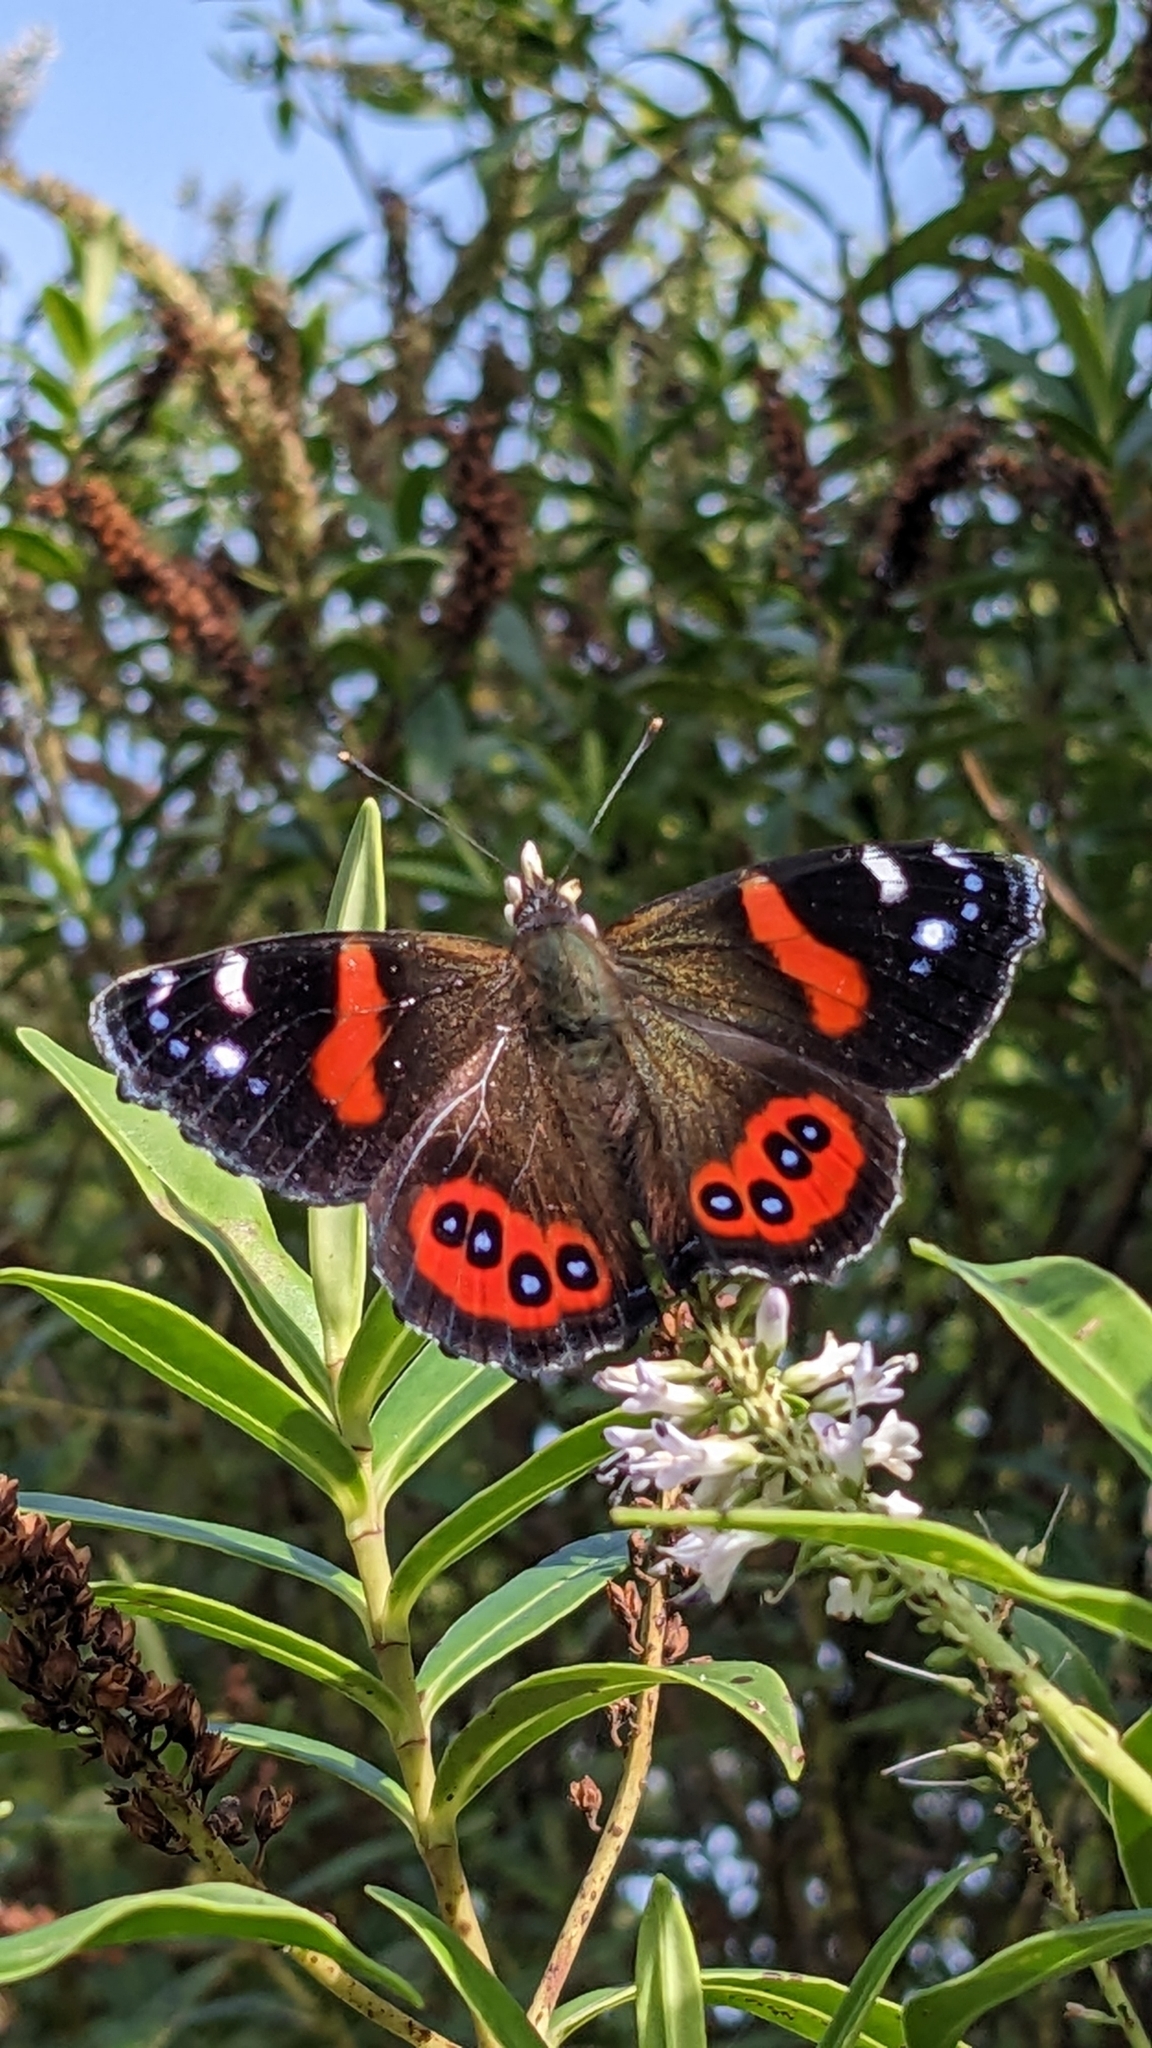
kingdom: Animalia
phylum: Arthropoda
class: Insecta
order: Lepidoptera
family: Nymphalidae
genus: Vanessa
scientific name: Vanessa gonerilla
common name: New zealand red admiral
